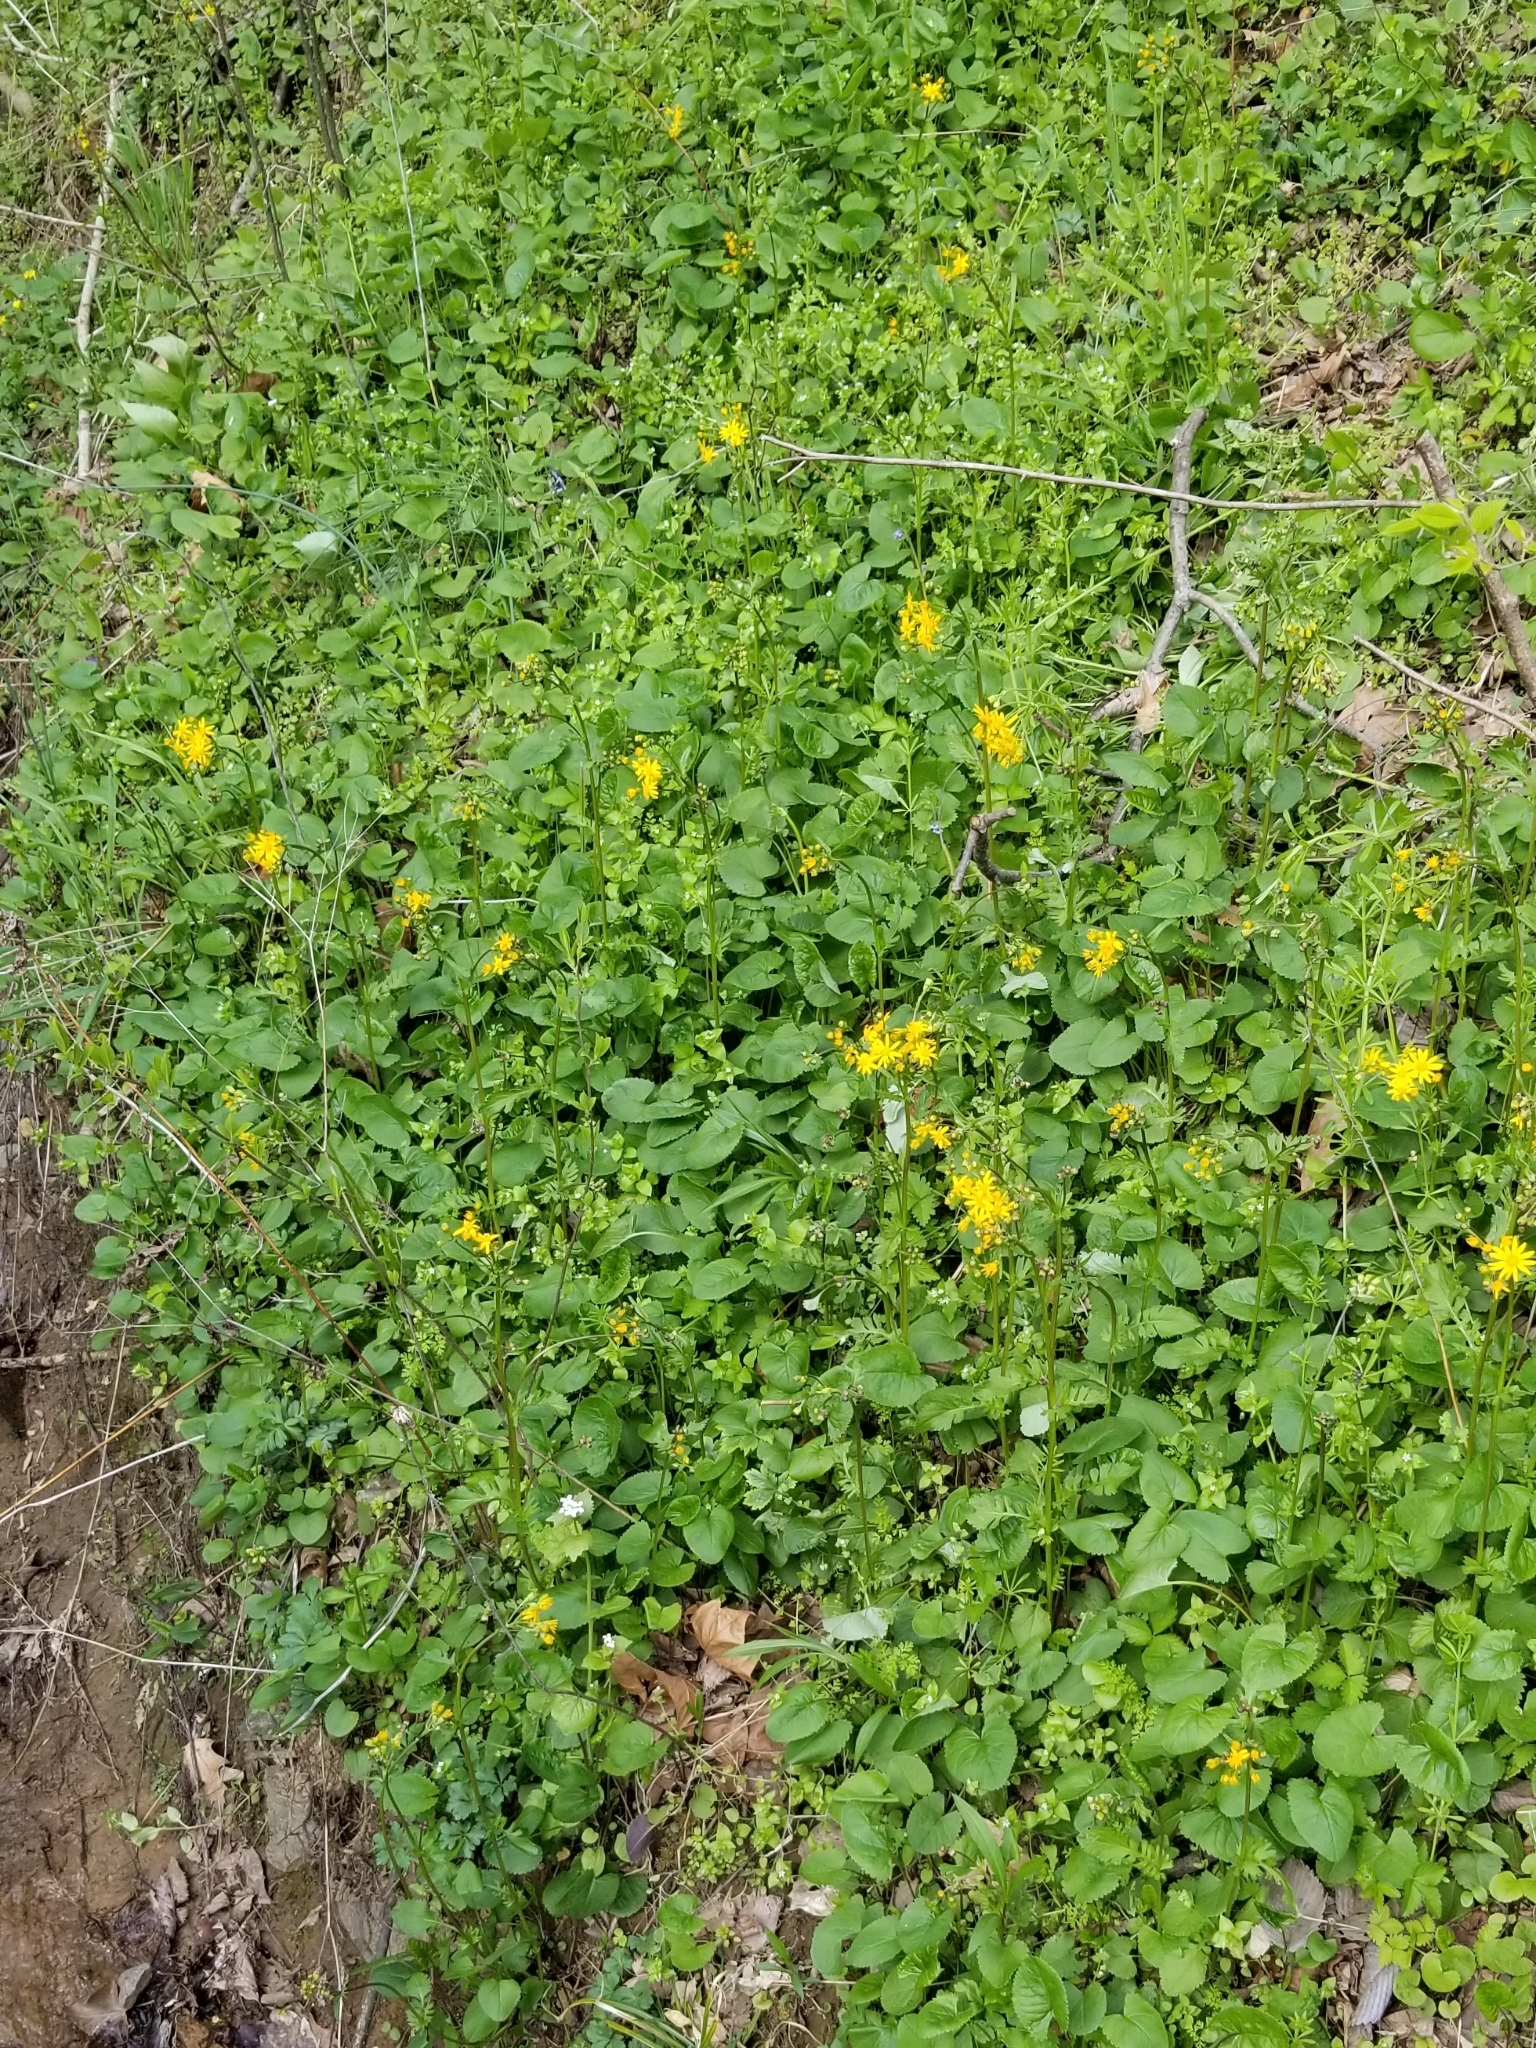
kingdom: Plantae
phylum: Tracheophyta
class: Magnoliopsida
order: Asterales
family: Asteraceae
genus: Packera
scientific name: Packera aurea
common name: Golden groundsel
